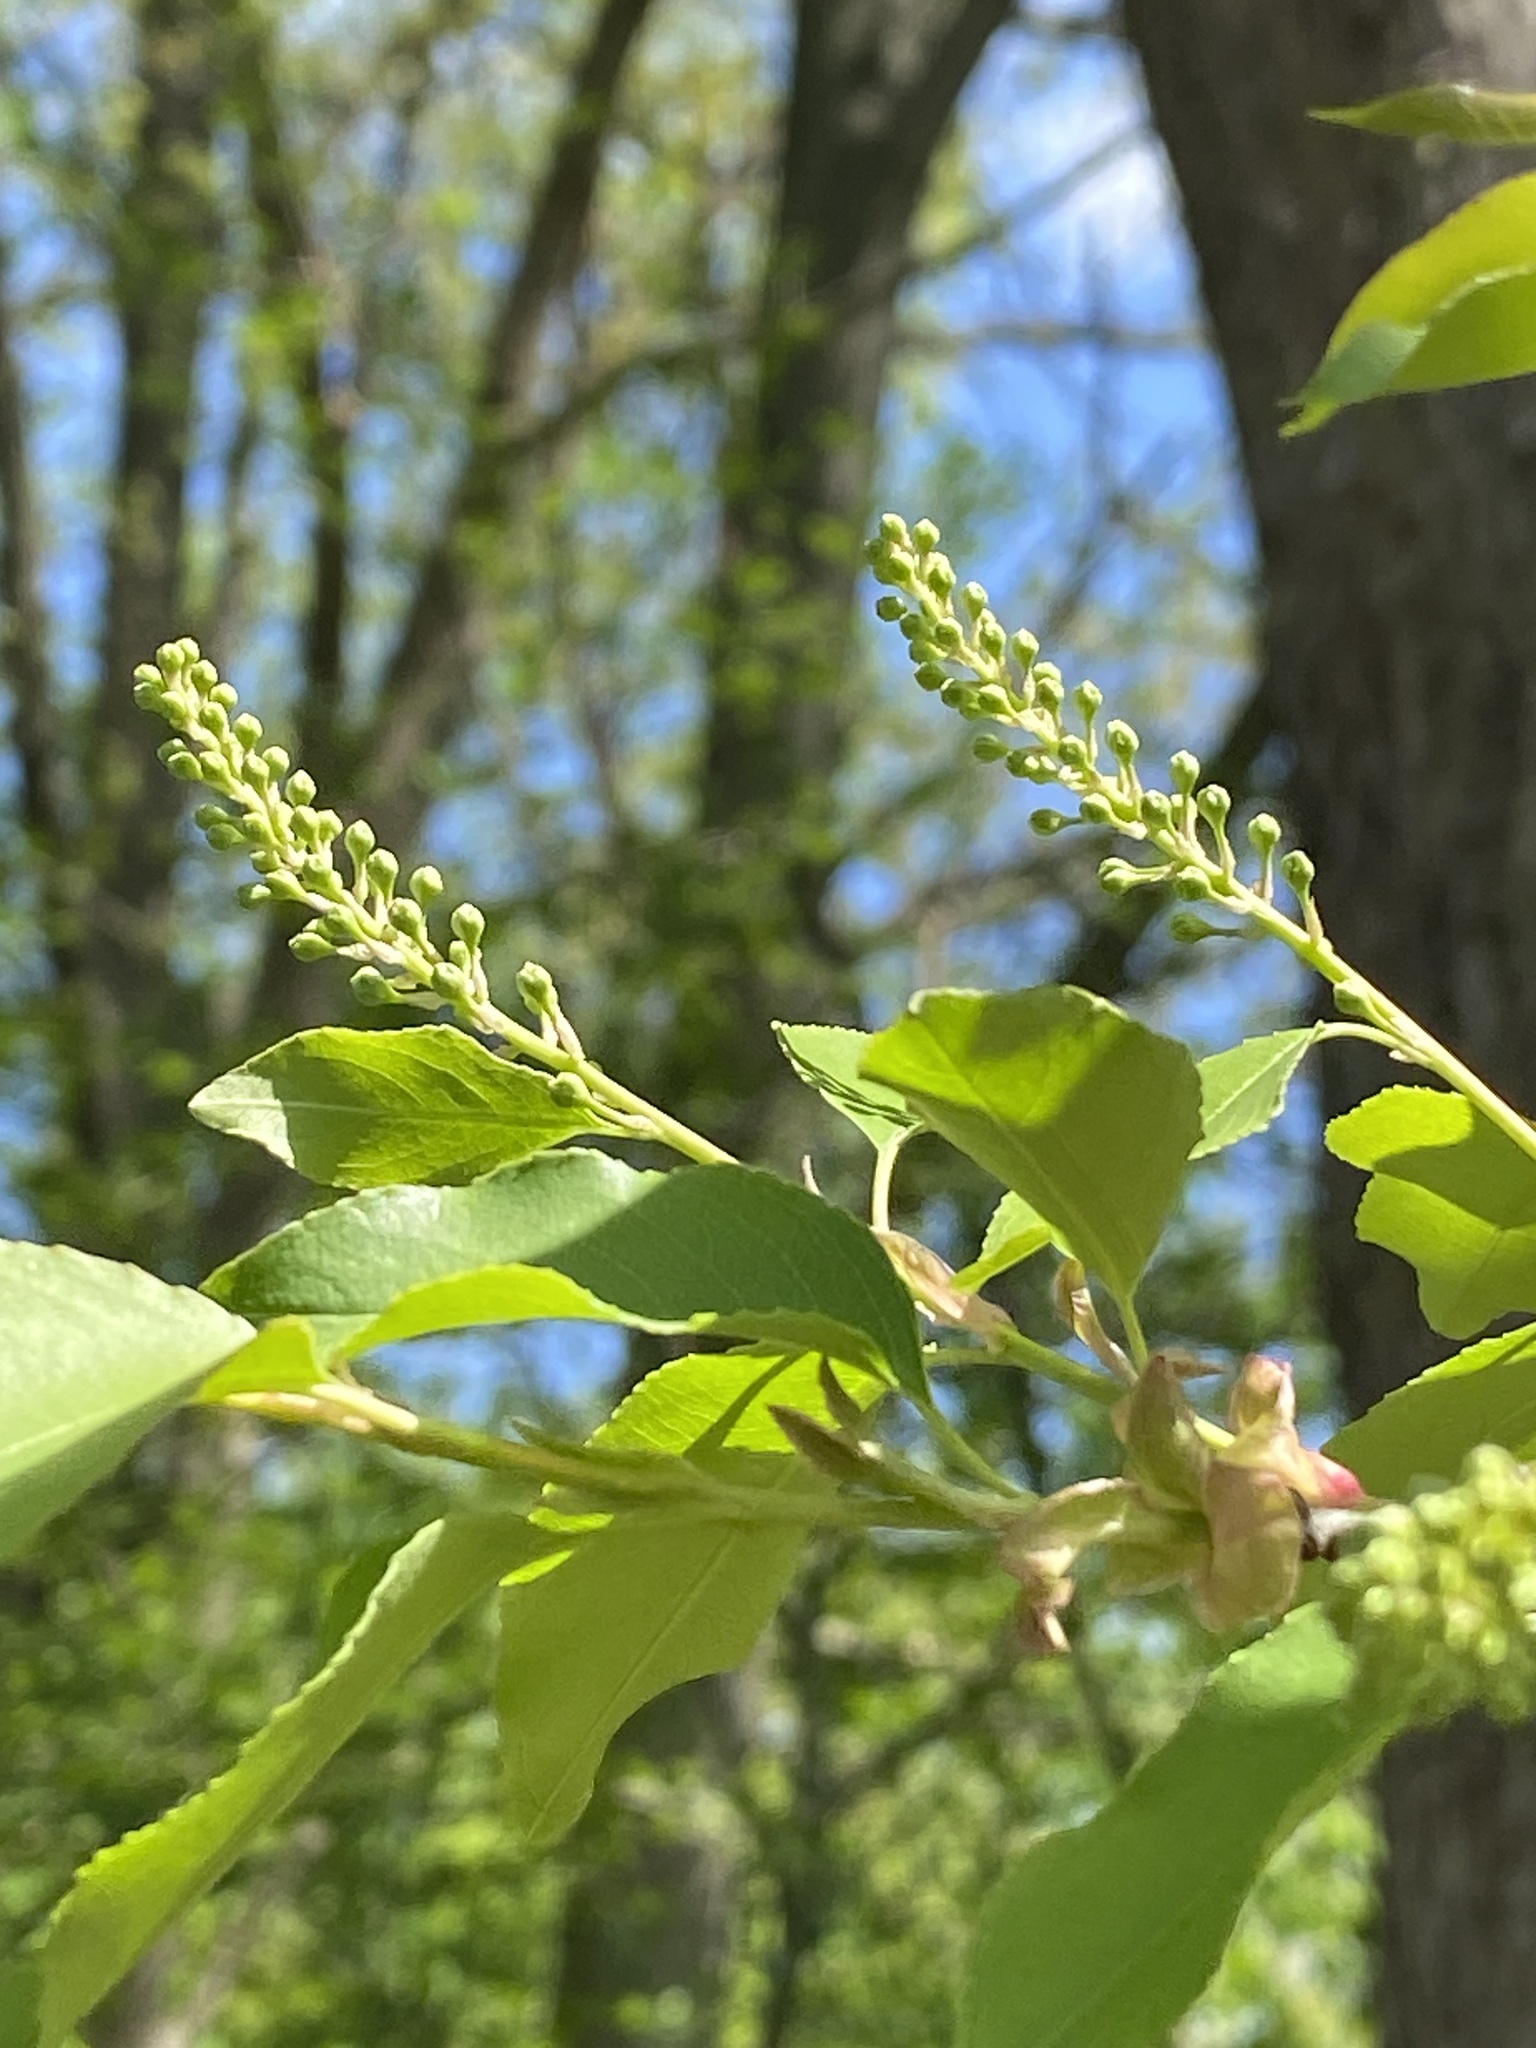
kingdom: Plantae
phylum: Tracheophyta
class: Magnoliopsida
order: Rosales
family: Rosaceae
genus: Prunus
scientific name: Prunus serotina
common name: Black cherry
